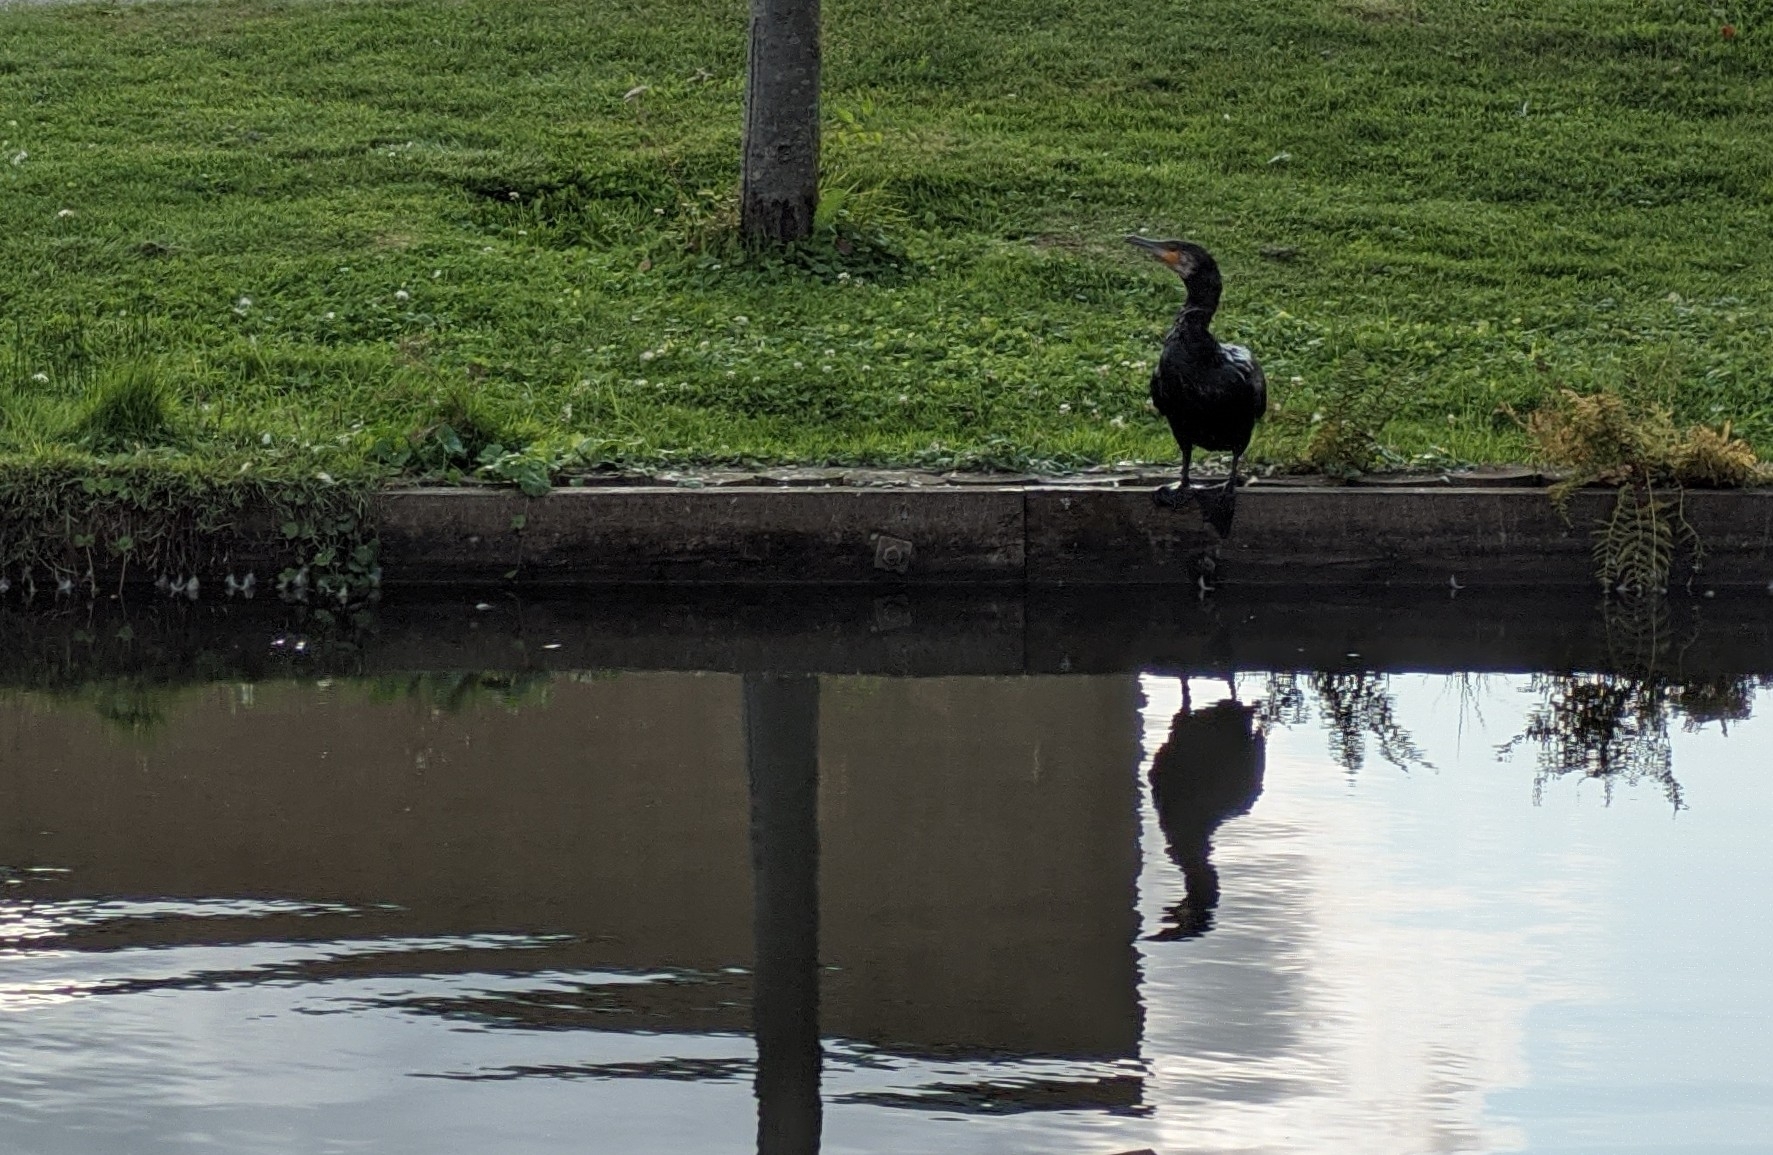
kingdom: Animalia
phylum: Chordata
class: Aves
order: Suliformes
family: Phalacrocoracidae
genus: Phalacrocorax
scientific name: Phalacrocorax carbo
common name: Great cormorant
